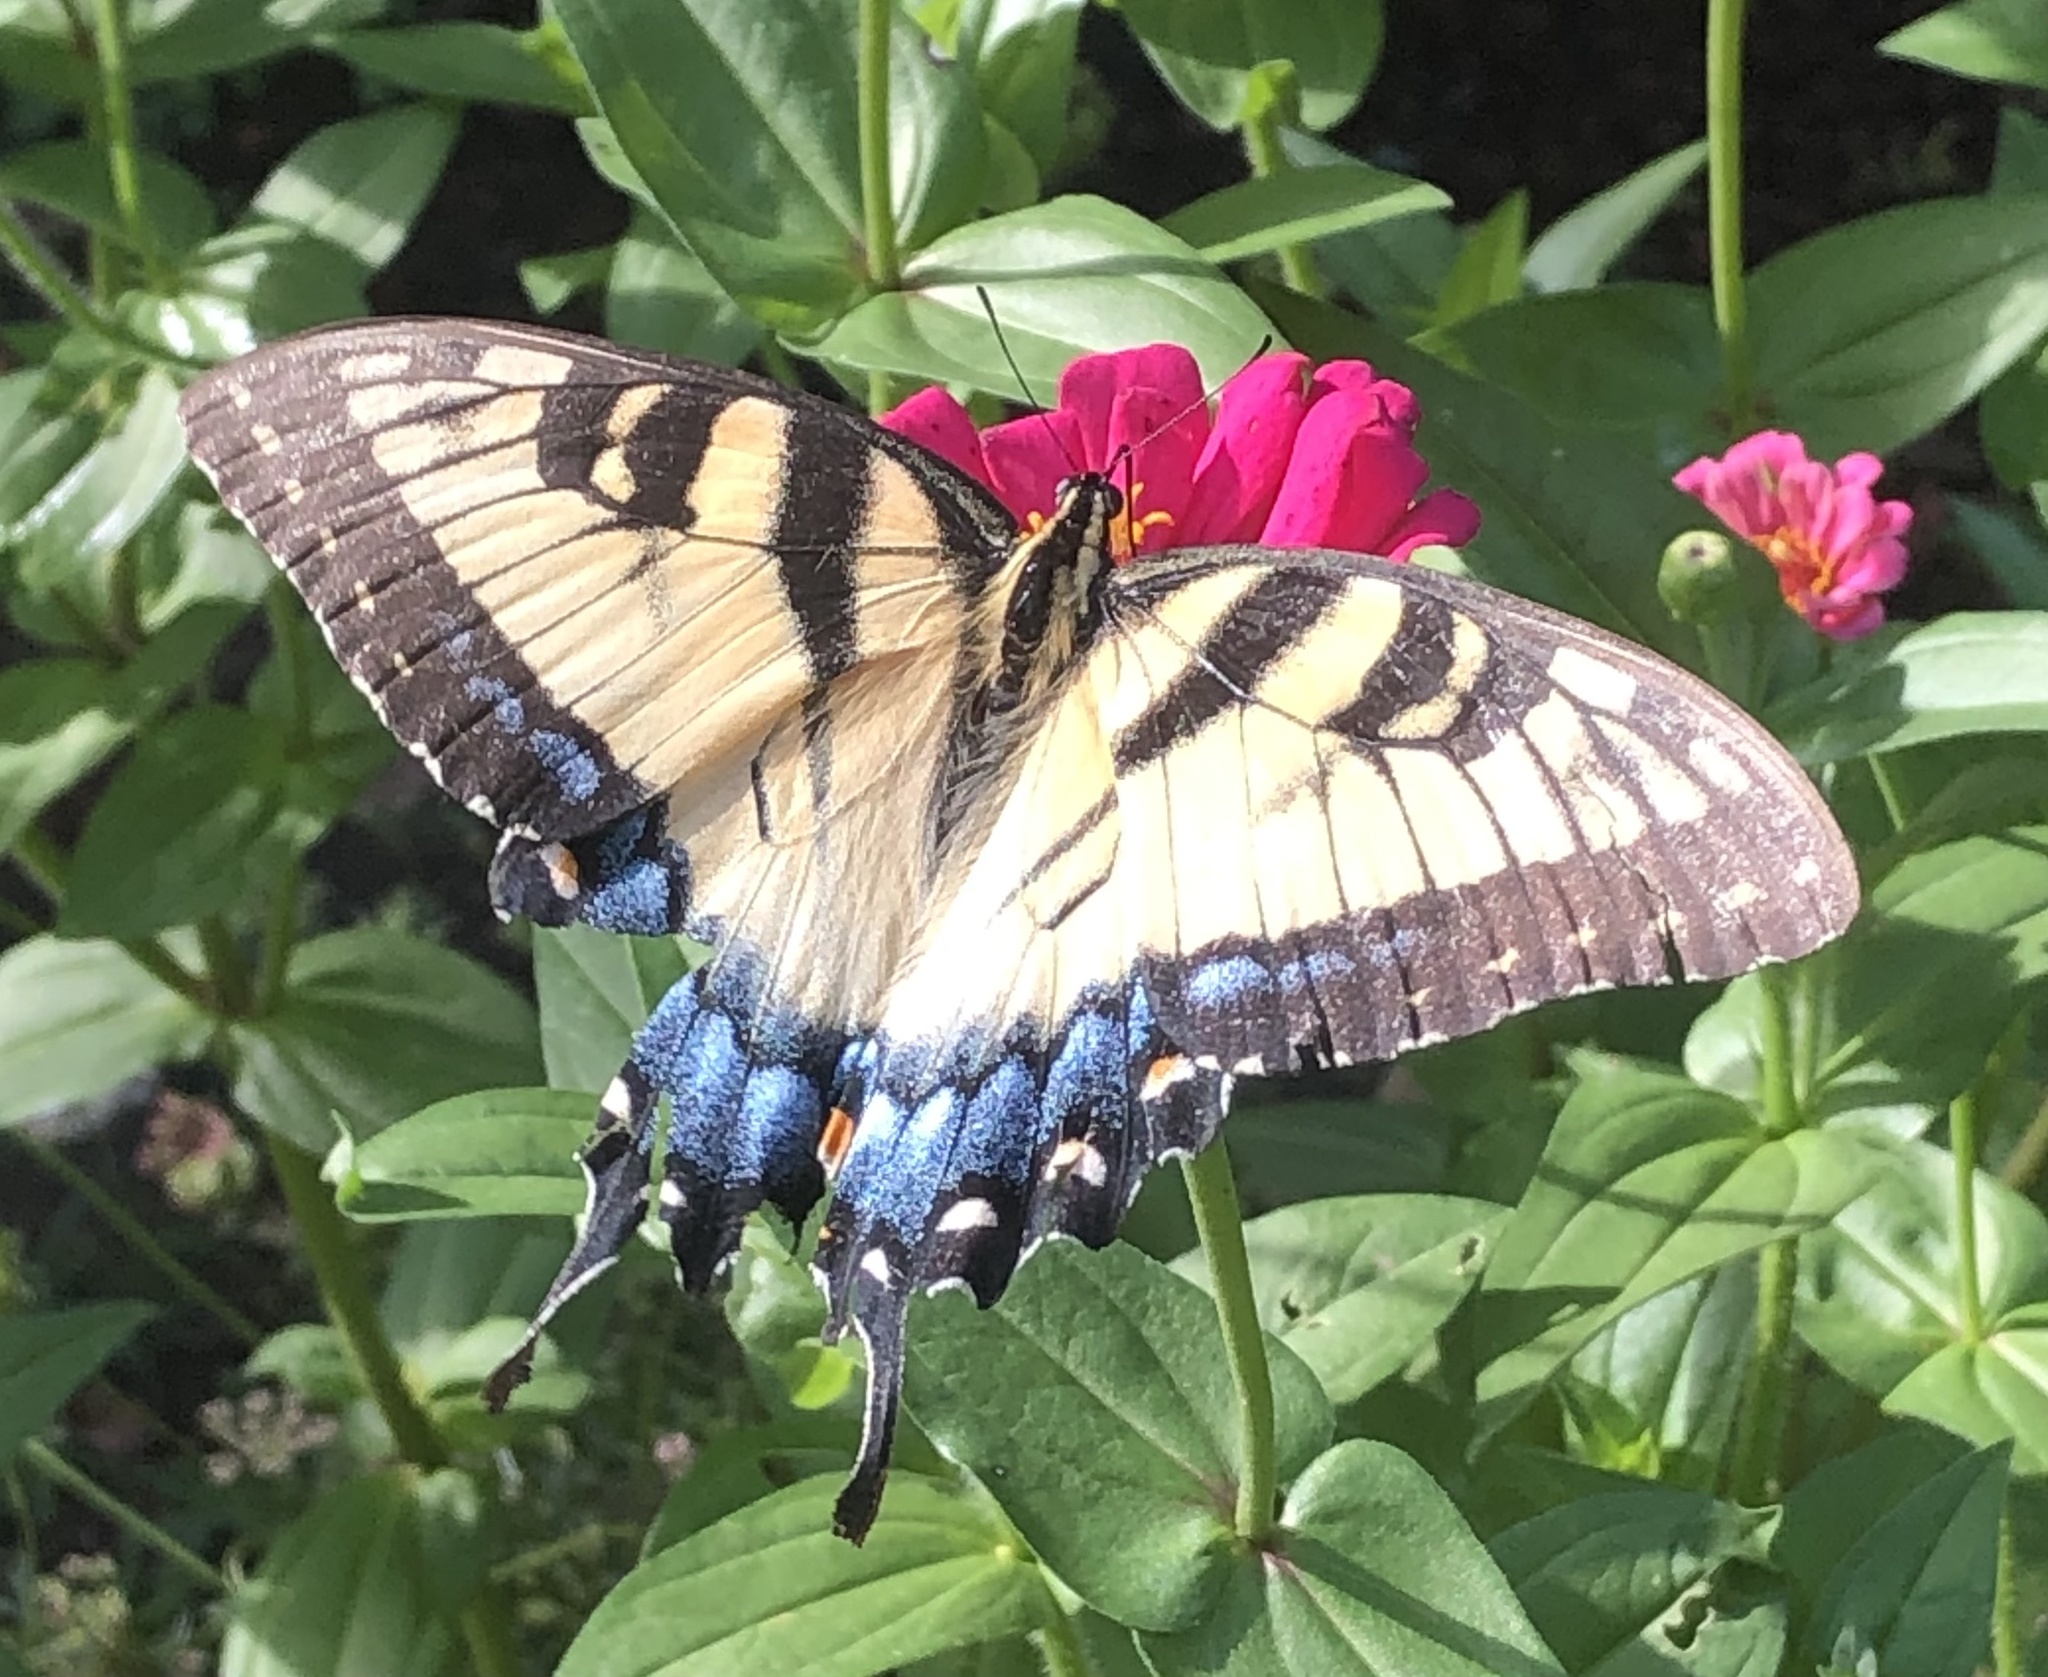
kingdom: Animalia
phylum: Arthropoda
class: Insecta
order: Lepidoptera
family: Papilionidae
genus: Papilio
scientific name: Papilio glaucus
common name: Tiger swallowtail
